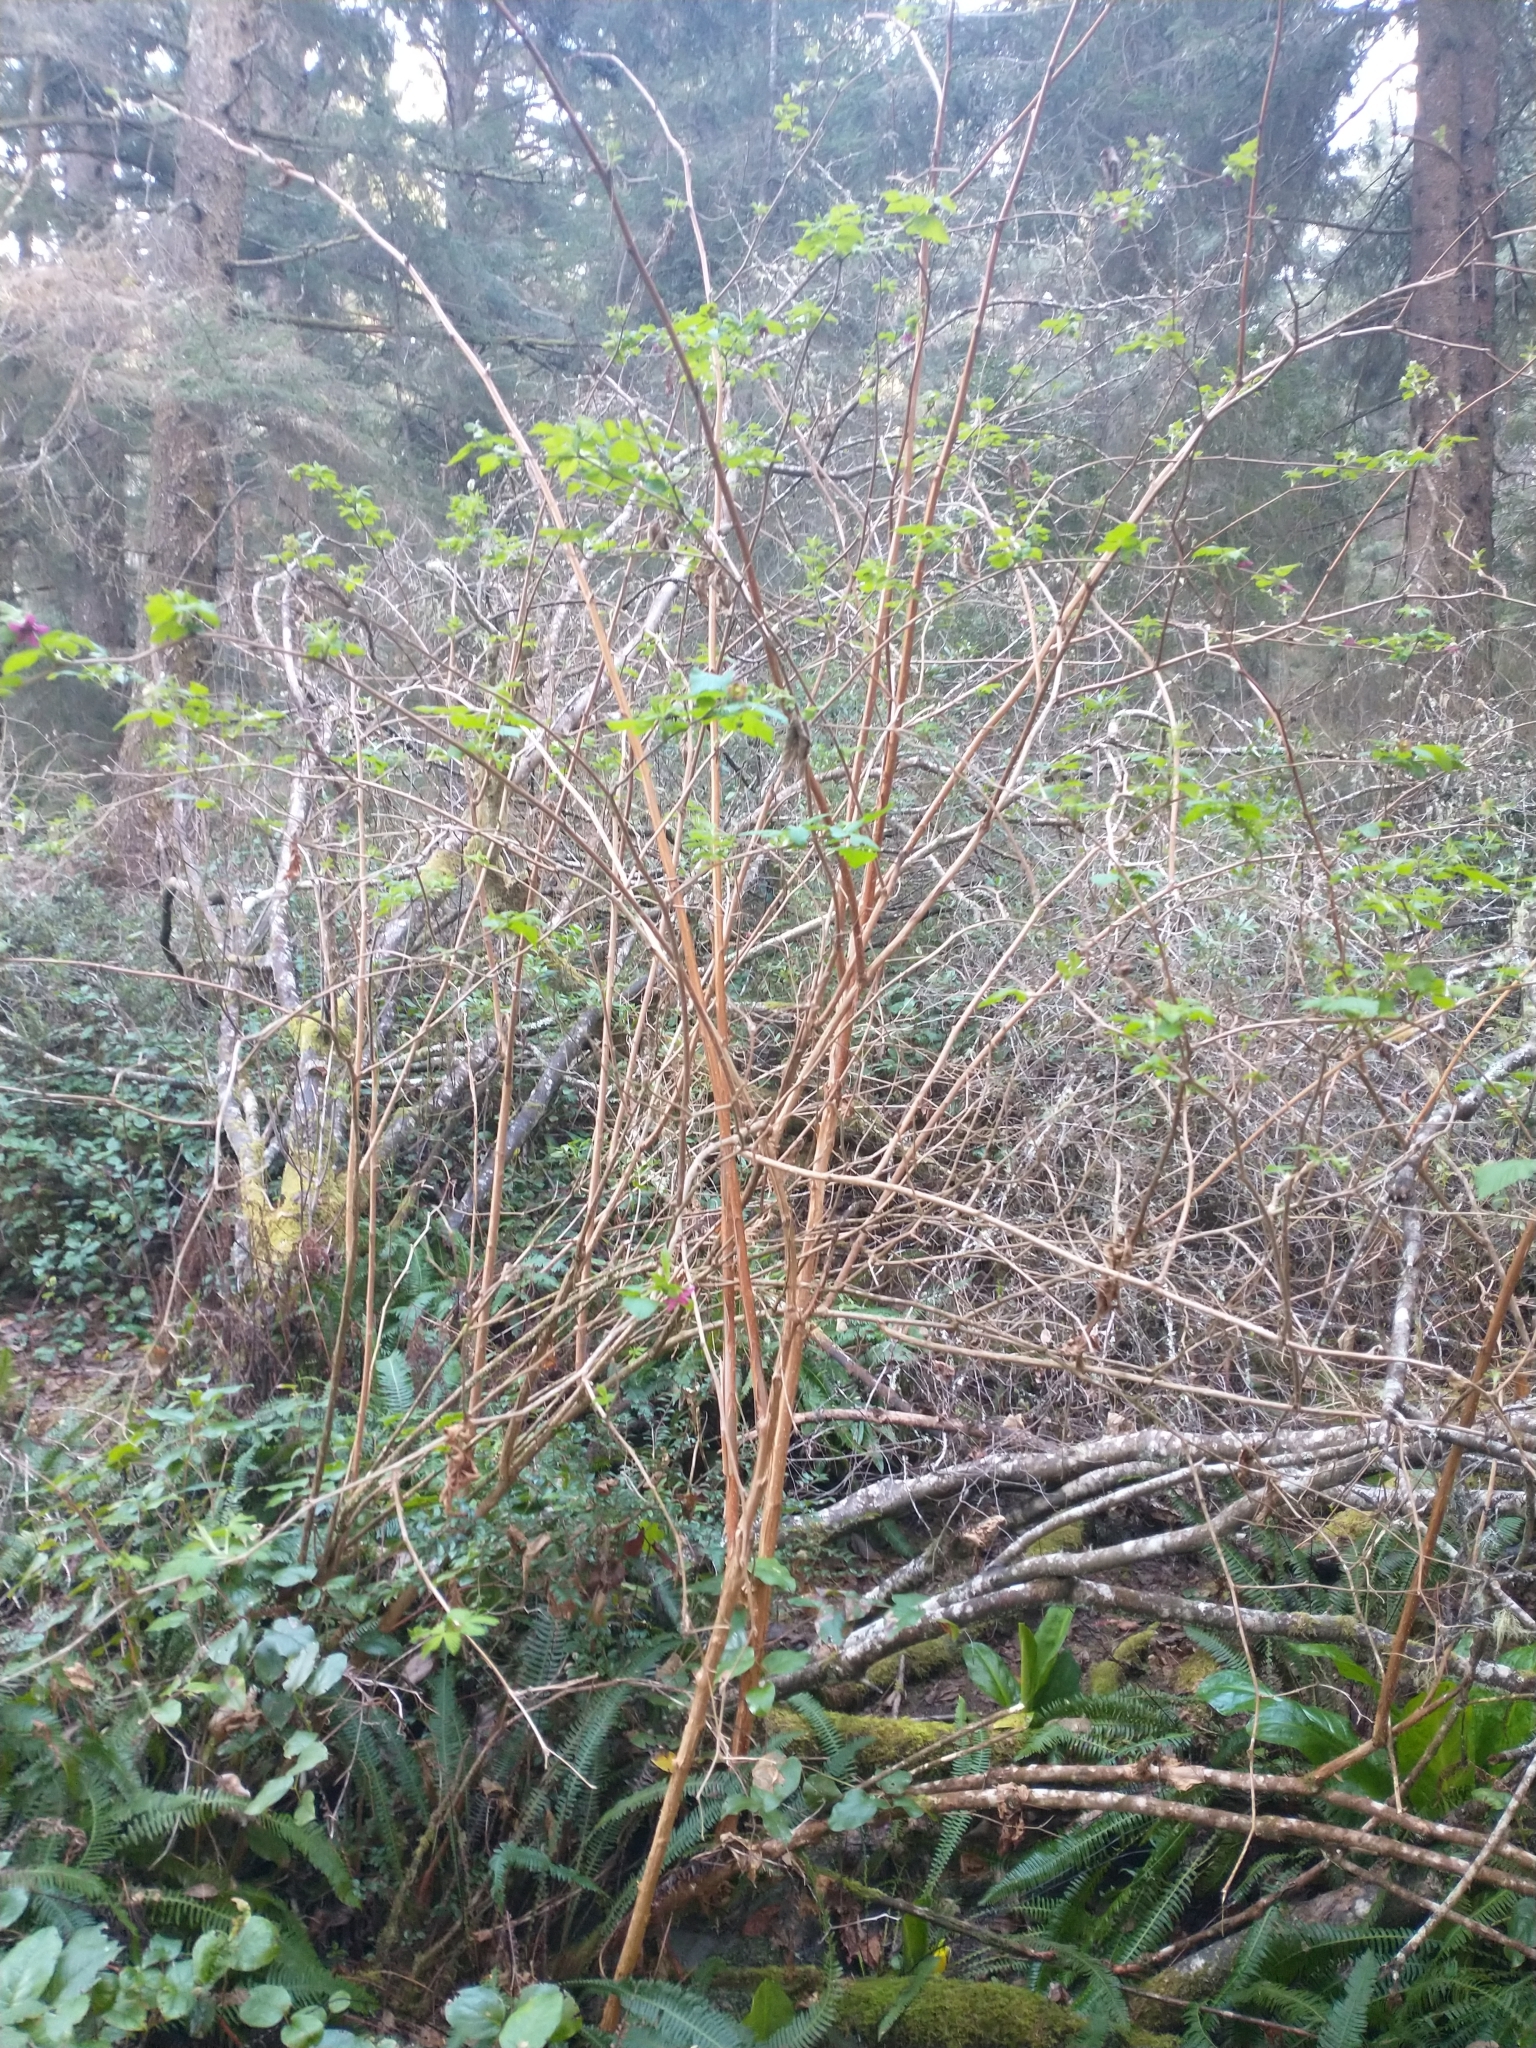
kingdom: Plantae
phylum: Tracheophyta
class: Magnoliopsida
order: Rosales
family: Rosaceae
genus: Rubus
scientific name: Rubus spectabilis
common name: Salmonberry
